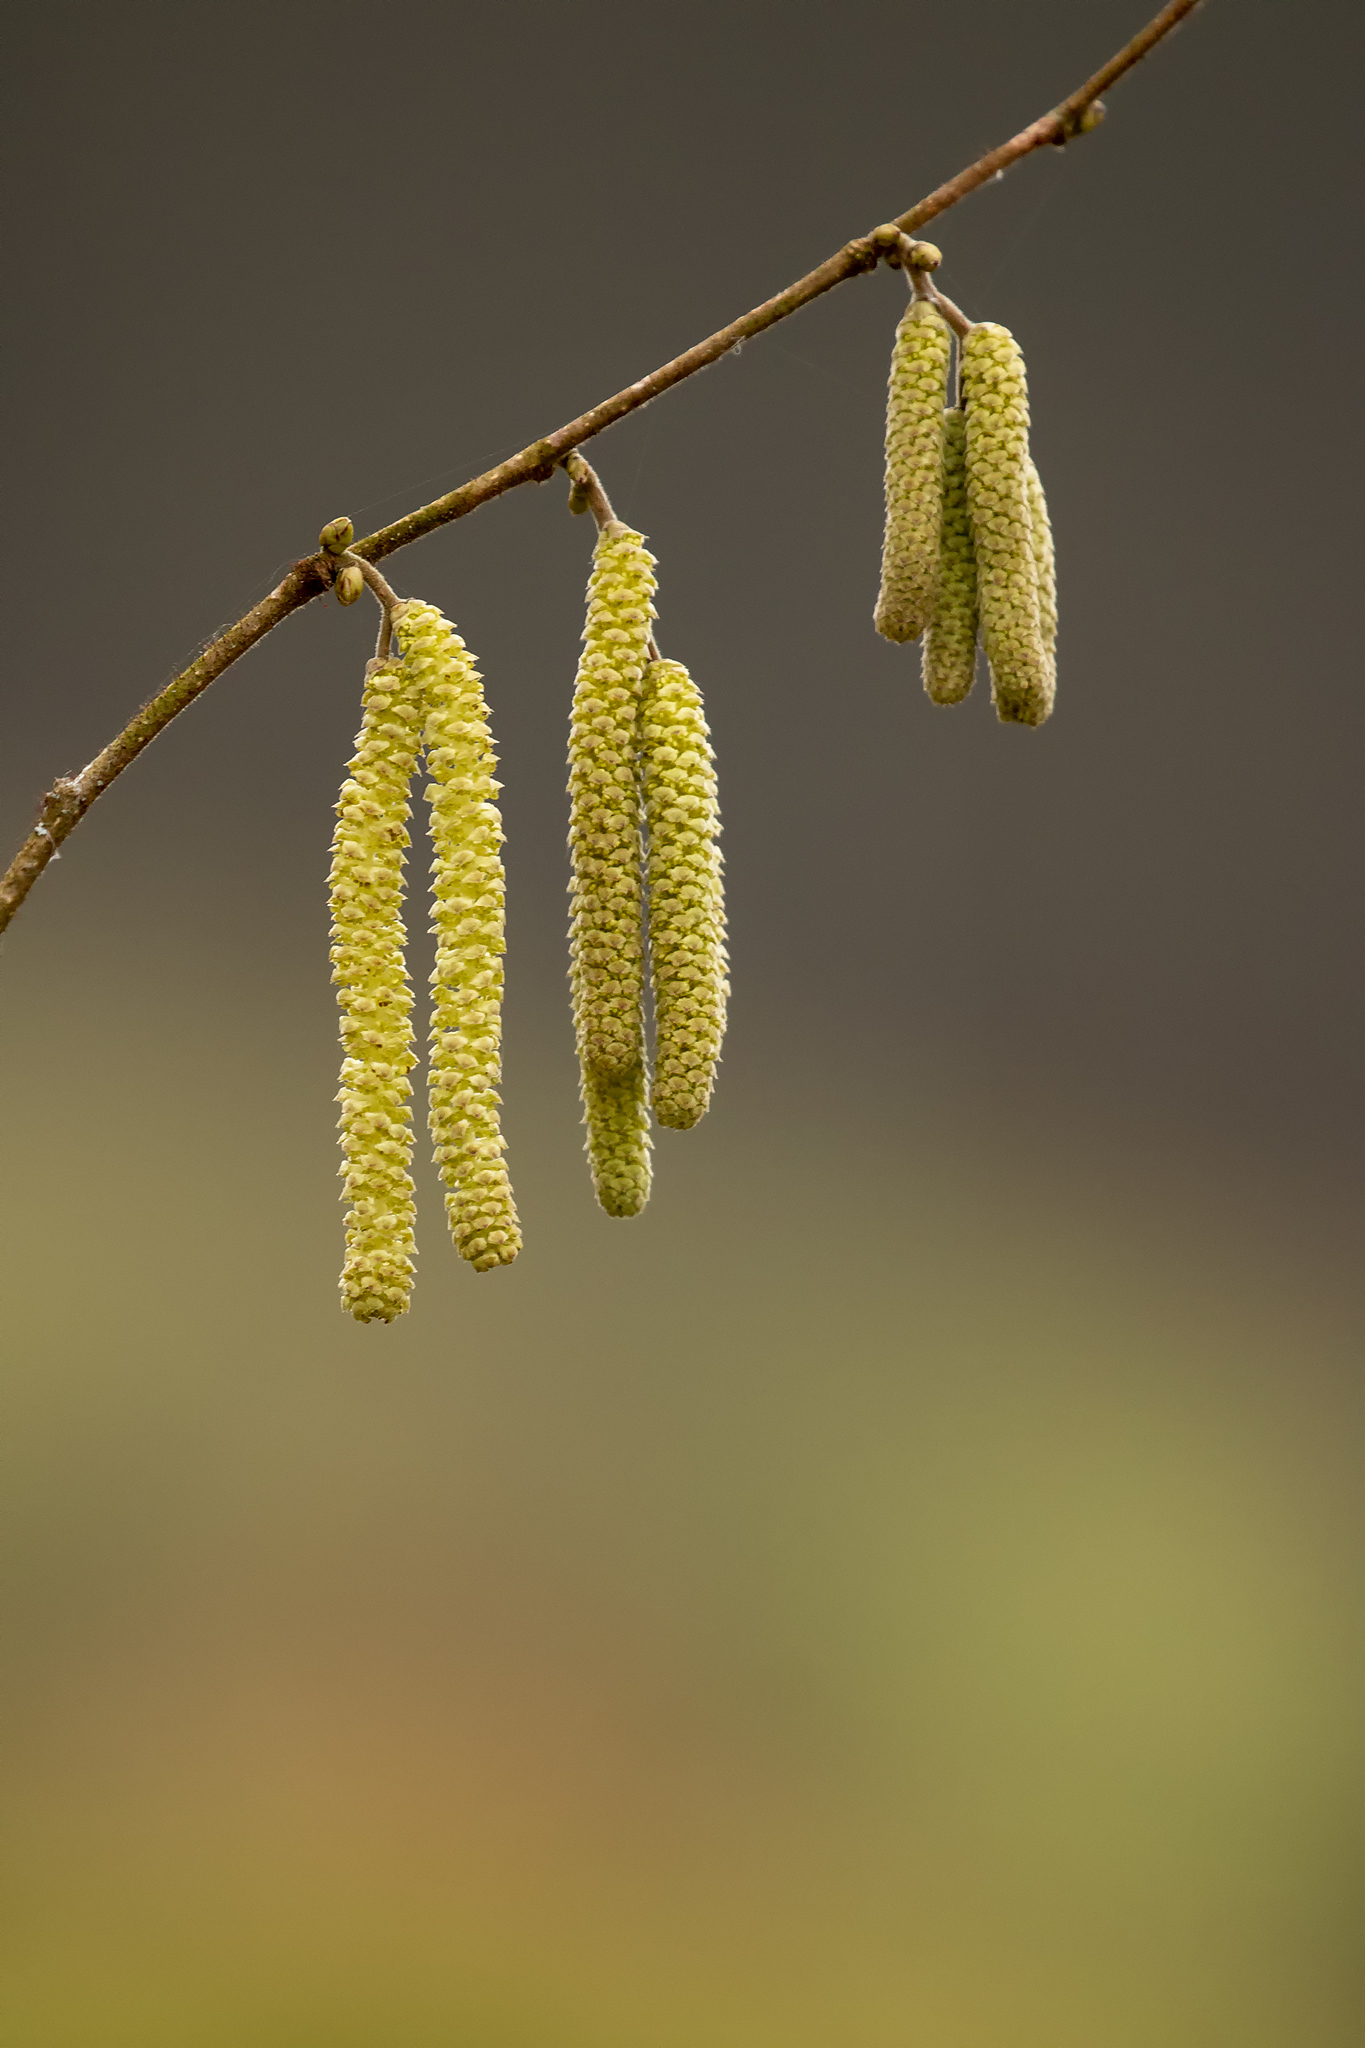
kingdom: Plantae
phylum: Tracheophyta
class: Magnoliopsida
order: Fagales
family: Betulaceae
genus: Corylus
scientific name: Corylus avellana
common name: European hazel
